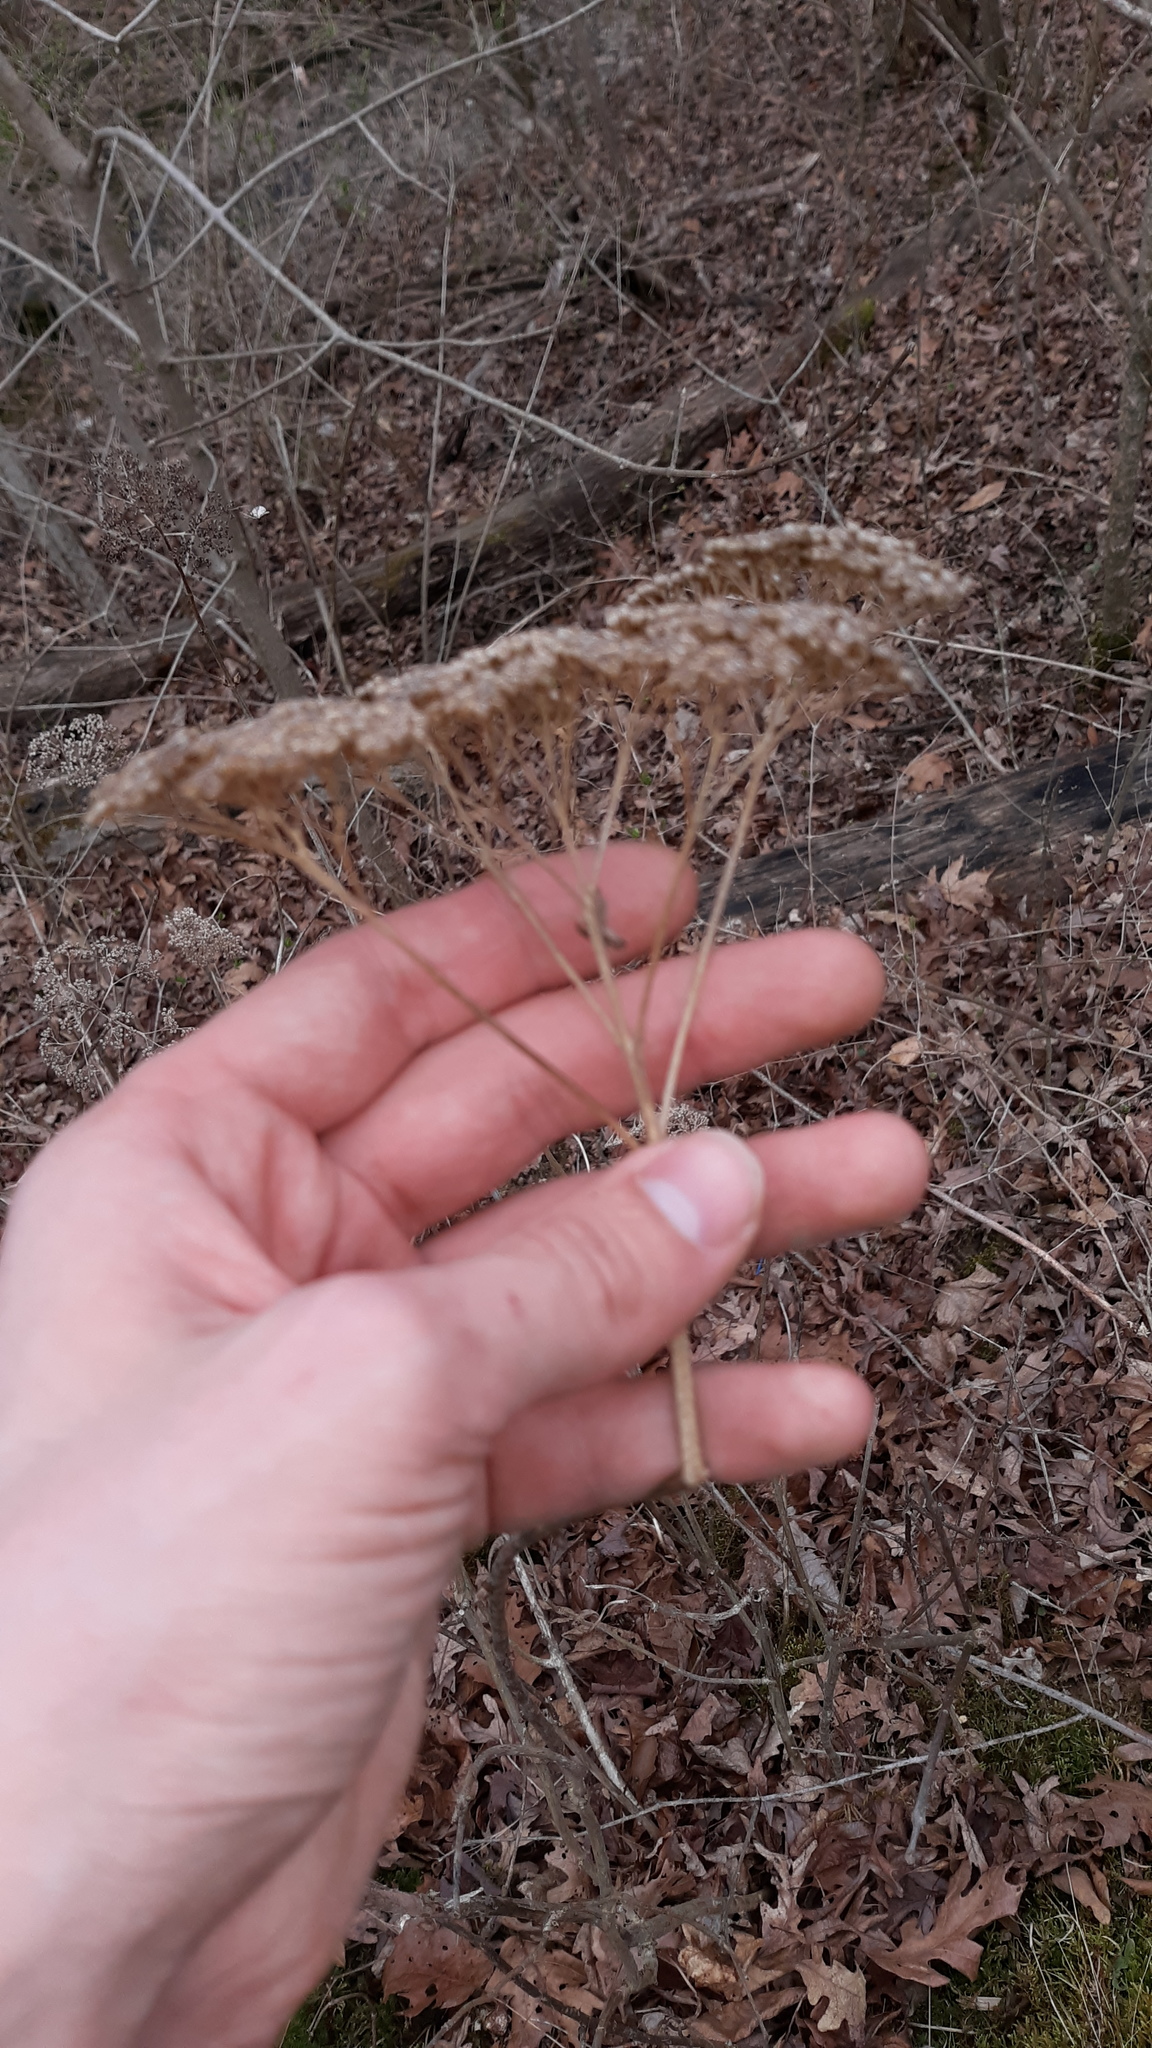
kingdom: Plantae
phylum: Tracheophyta
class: Magnoliopsida
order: Cornales
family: Hydrangeaceae
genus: Hydrangea
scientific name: Hydrangea arborescens
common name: Sevenbark
